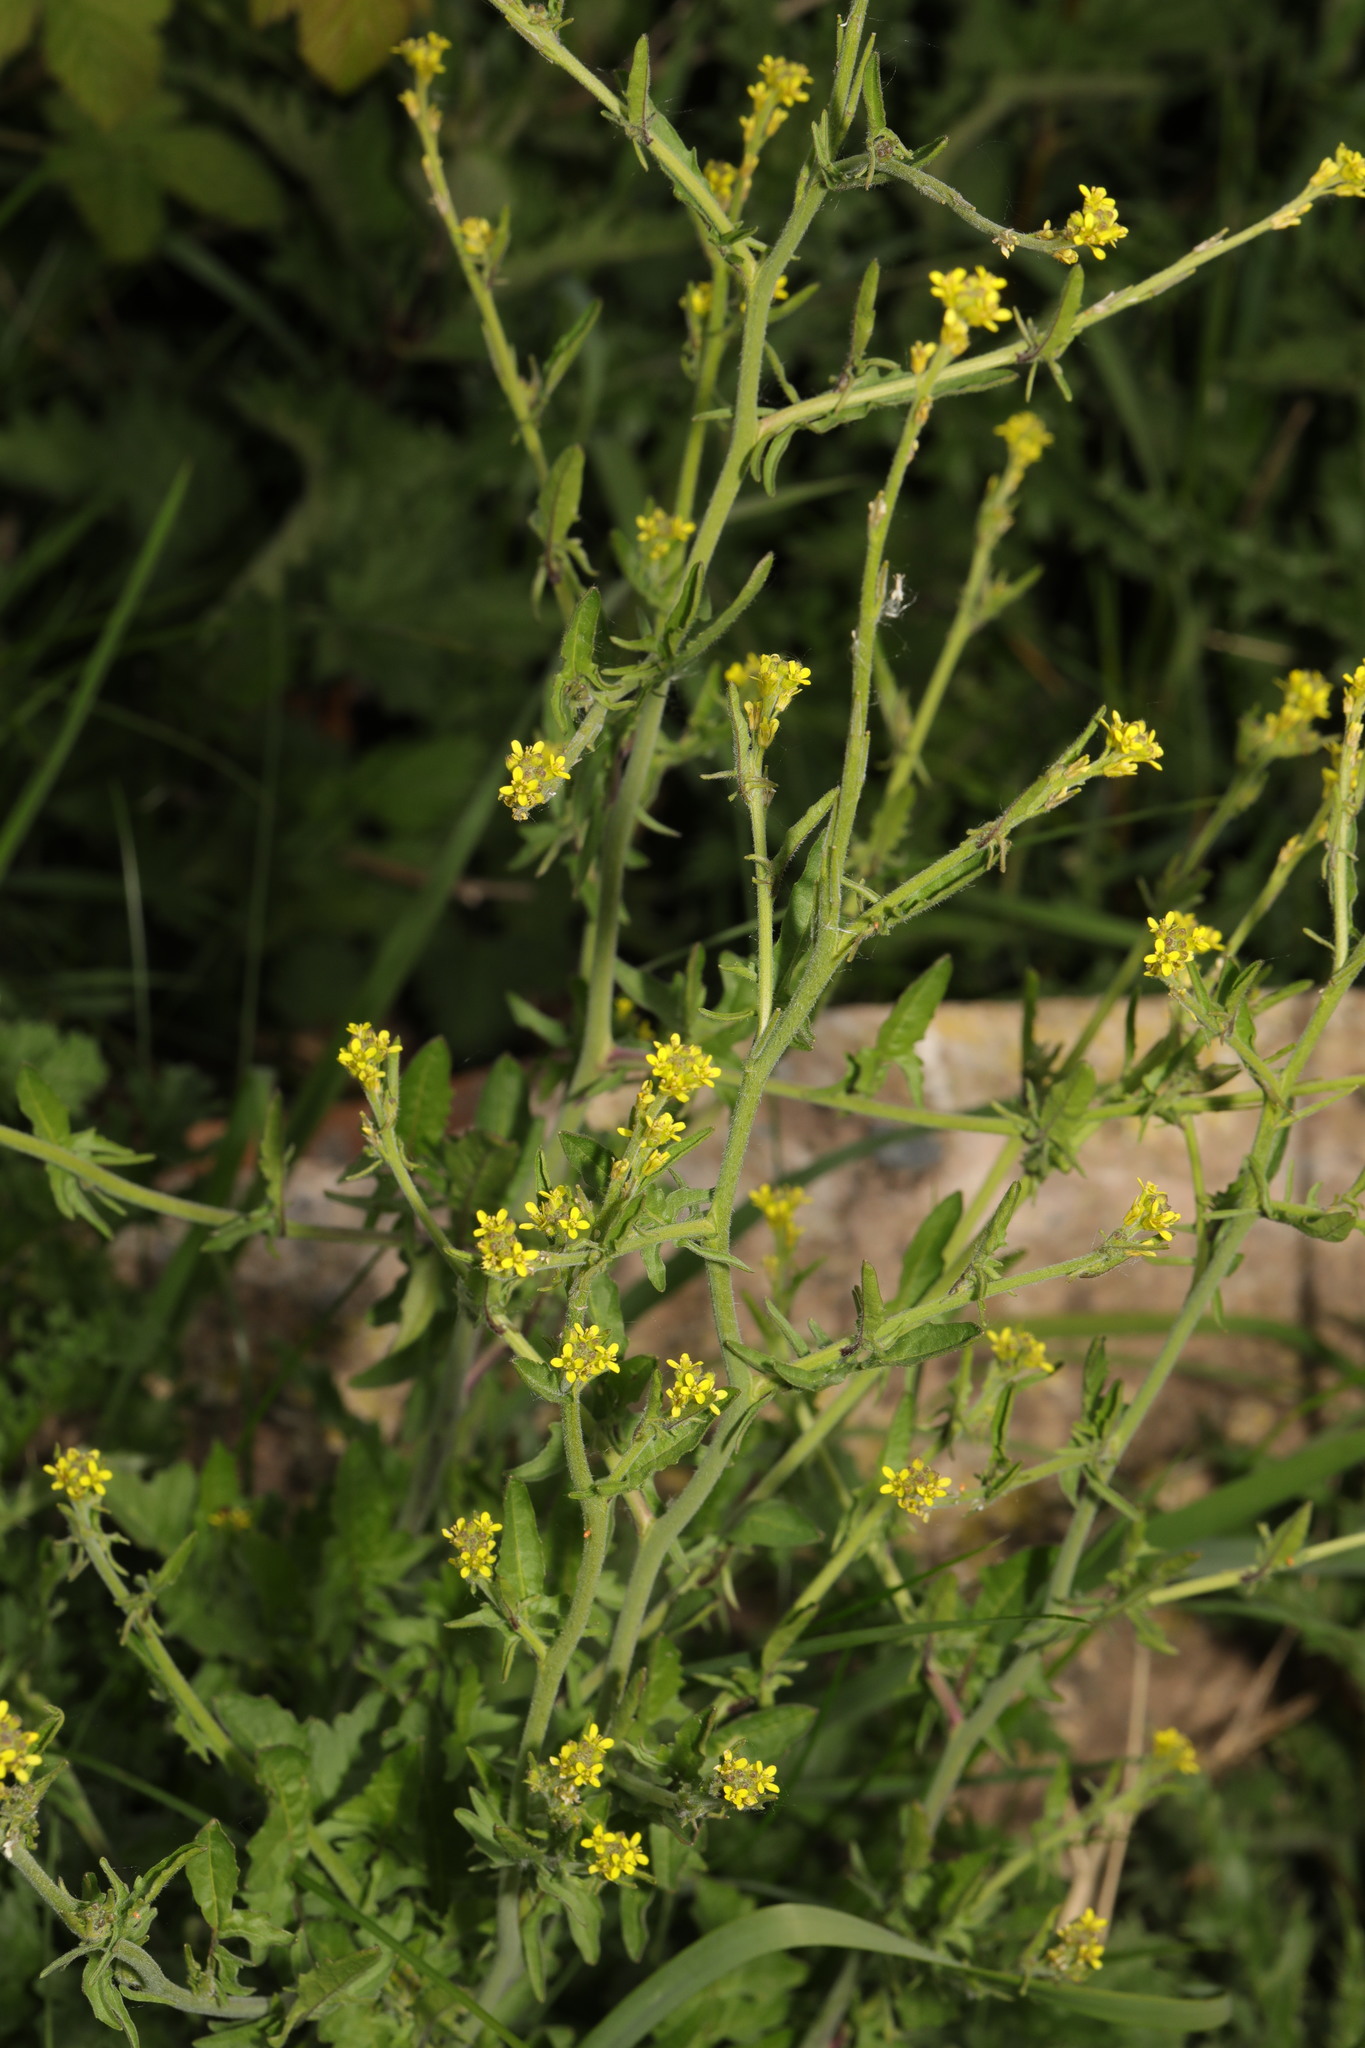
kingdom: Plantae
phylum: Tracheophyta
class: Magnoliopsida
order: Brassicales
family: Brassicaceae
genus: Sisymbrium
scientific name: Sisymbrium officinale
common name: Hedge mustard
